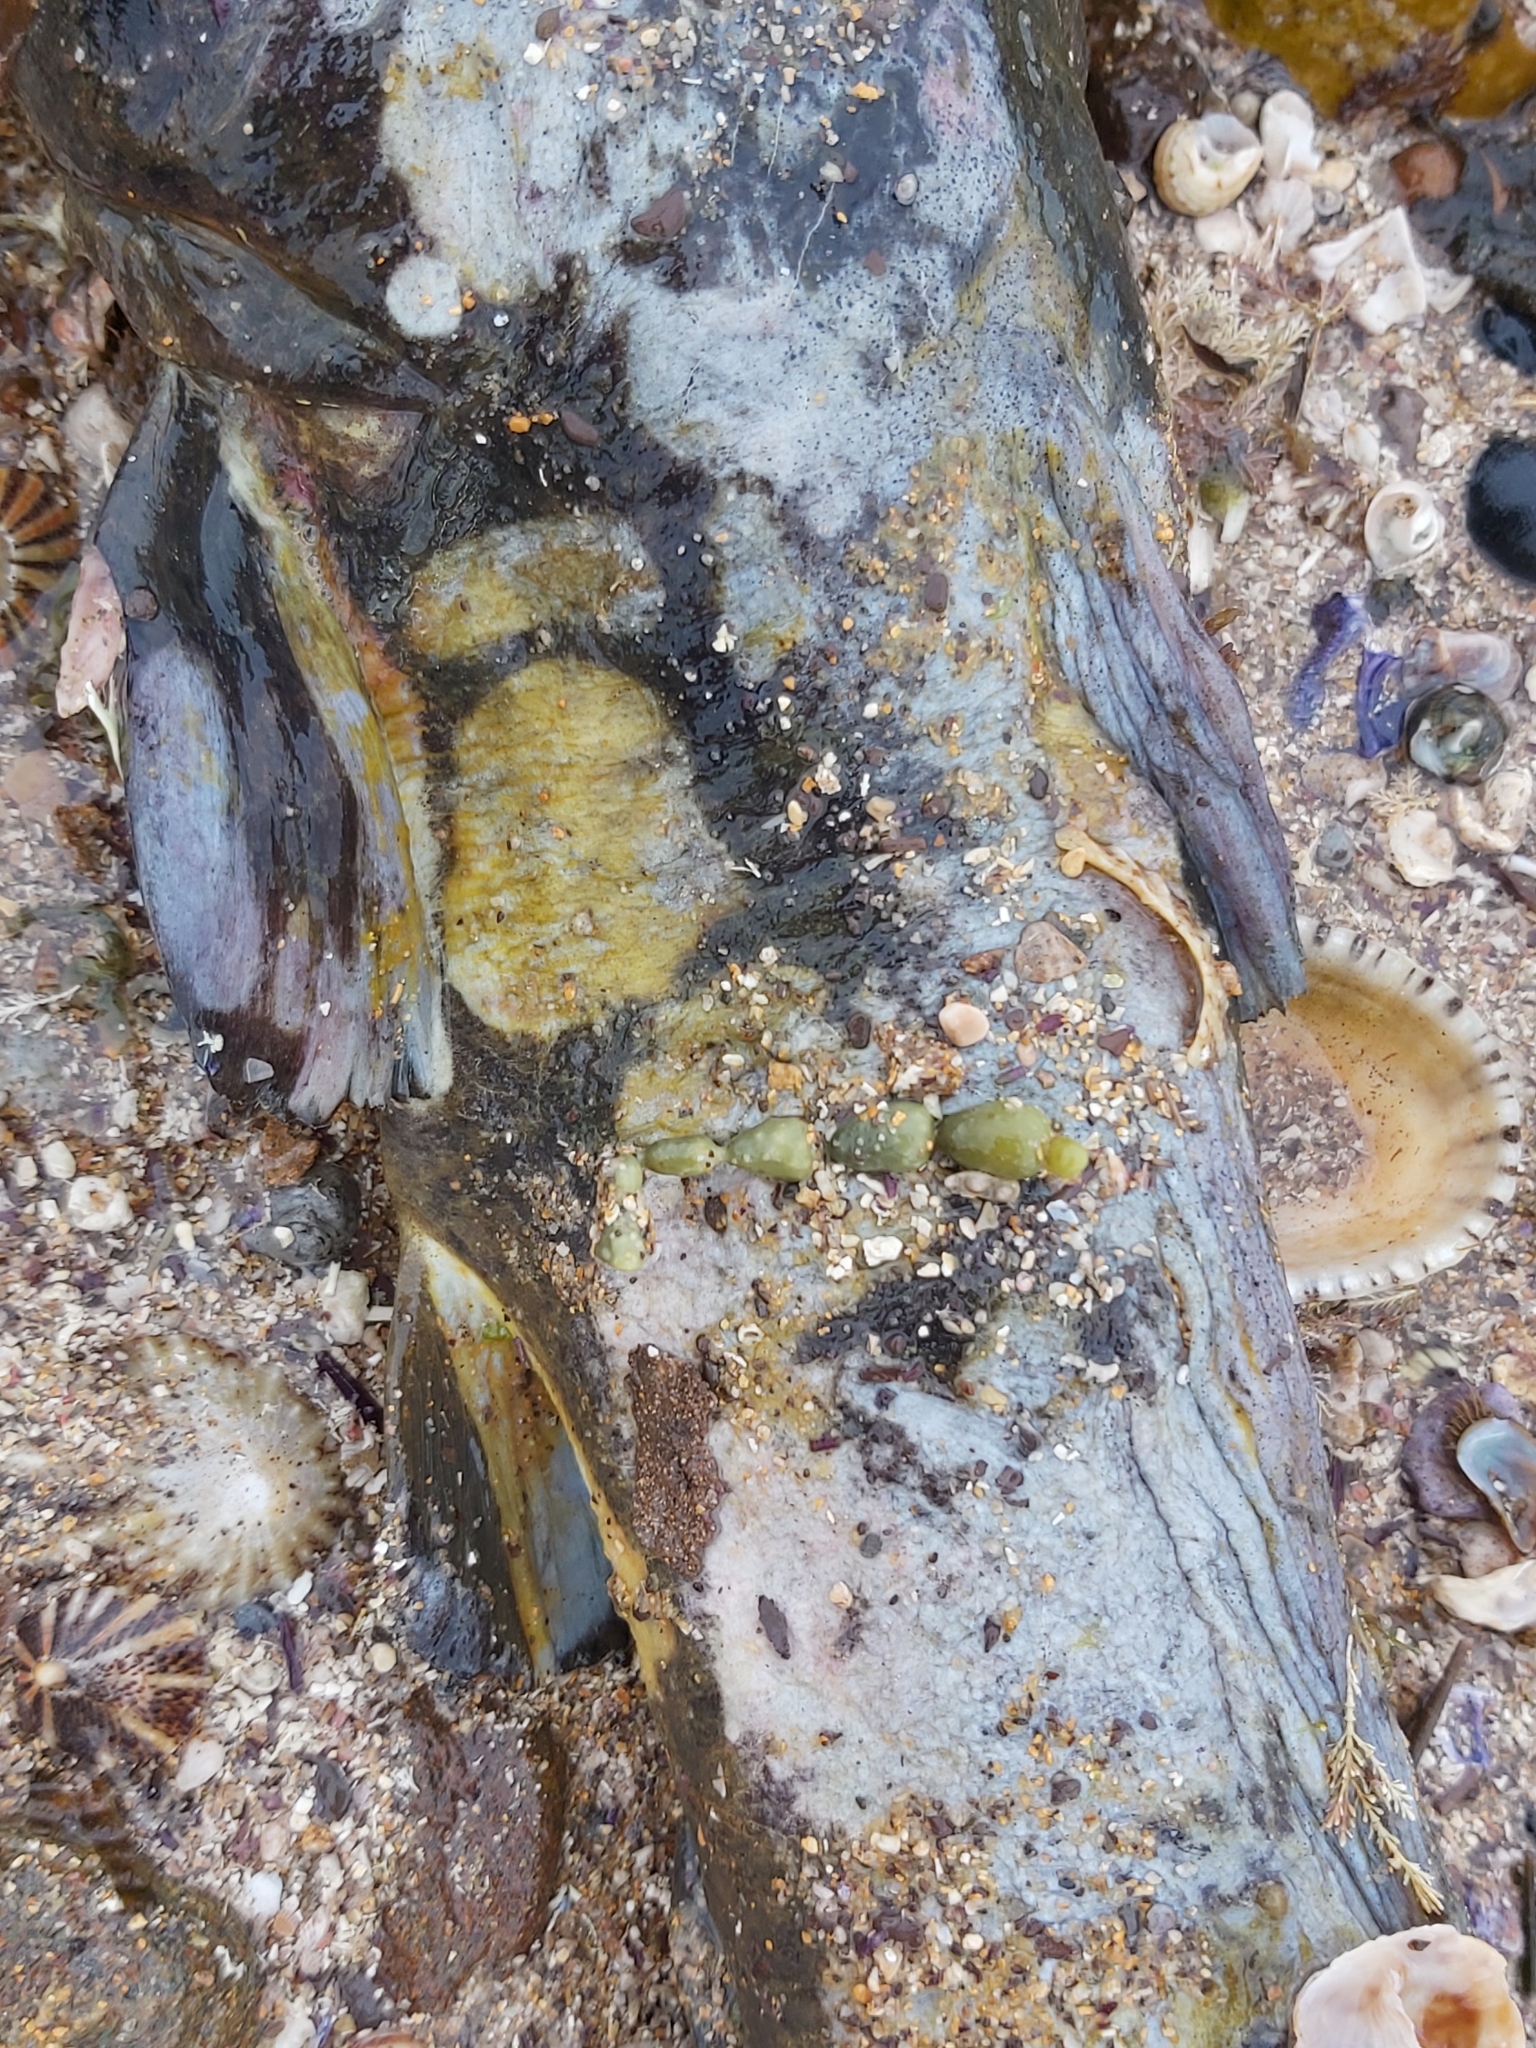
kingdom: Animalia
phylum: Chordata
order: Siluriformes
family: Plotosidae
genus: Cnidoglanis
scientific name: Cnidoglanis macrocephalus
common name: Cobbler
